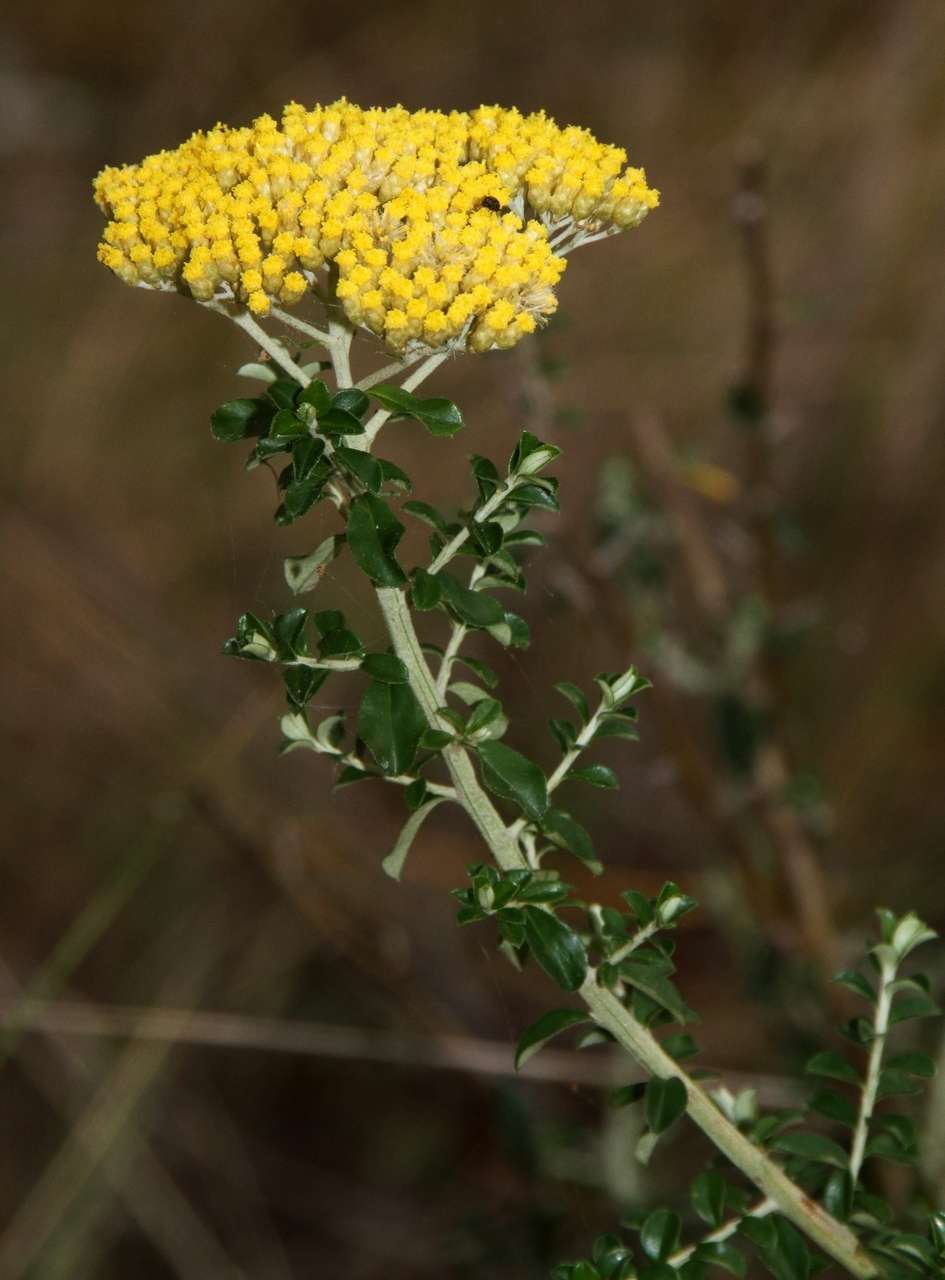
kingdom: Plantae
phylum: Tracheophyta
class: Magnoliopsida
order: Asterales
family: Asteraceae
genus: Ozothamnus
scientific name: Ozothamnus obcordatus
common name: Grey everlasting
